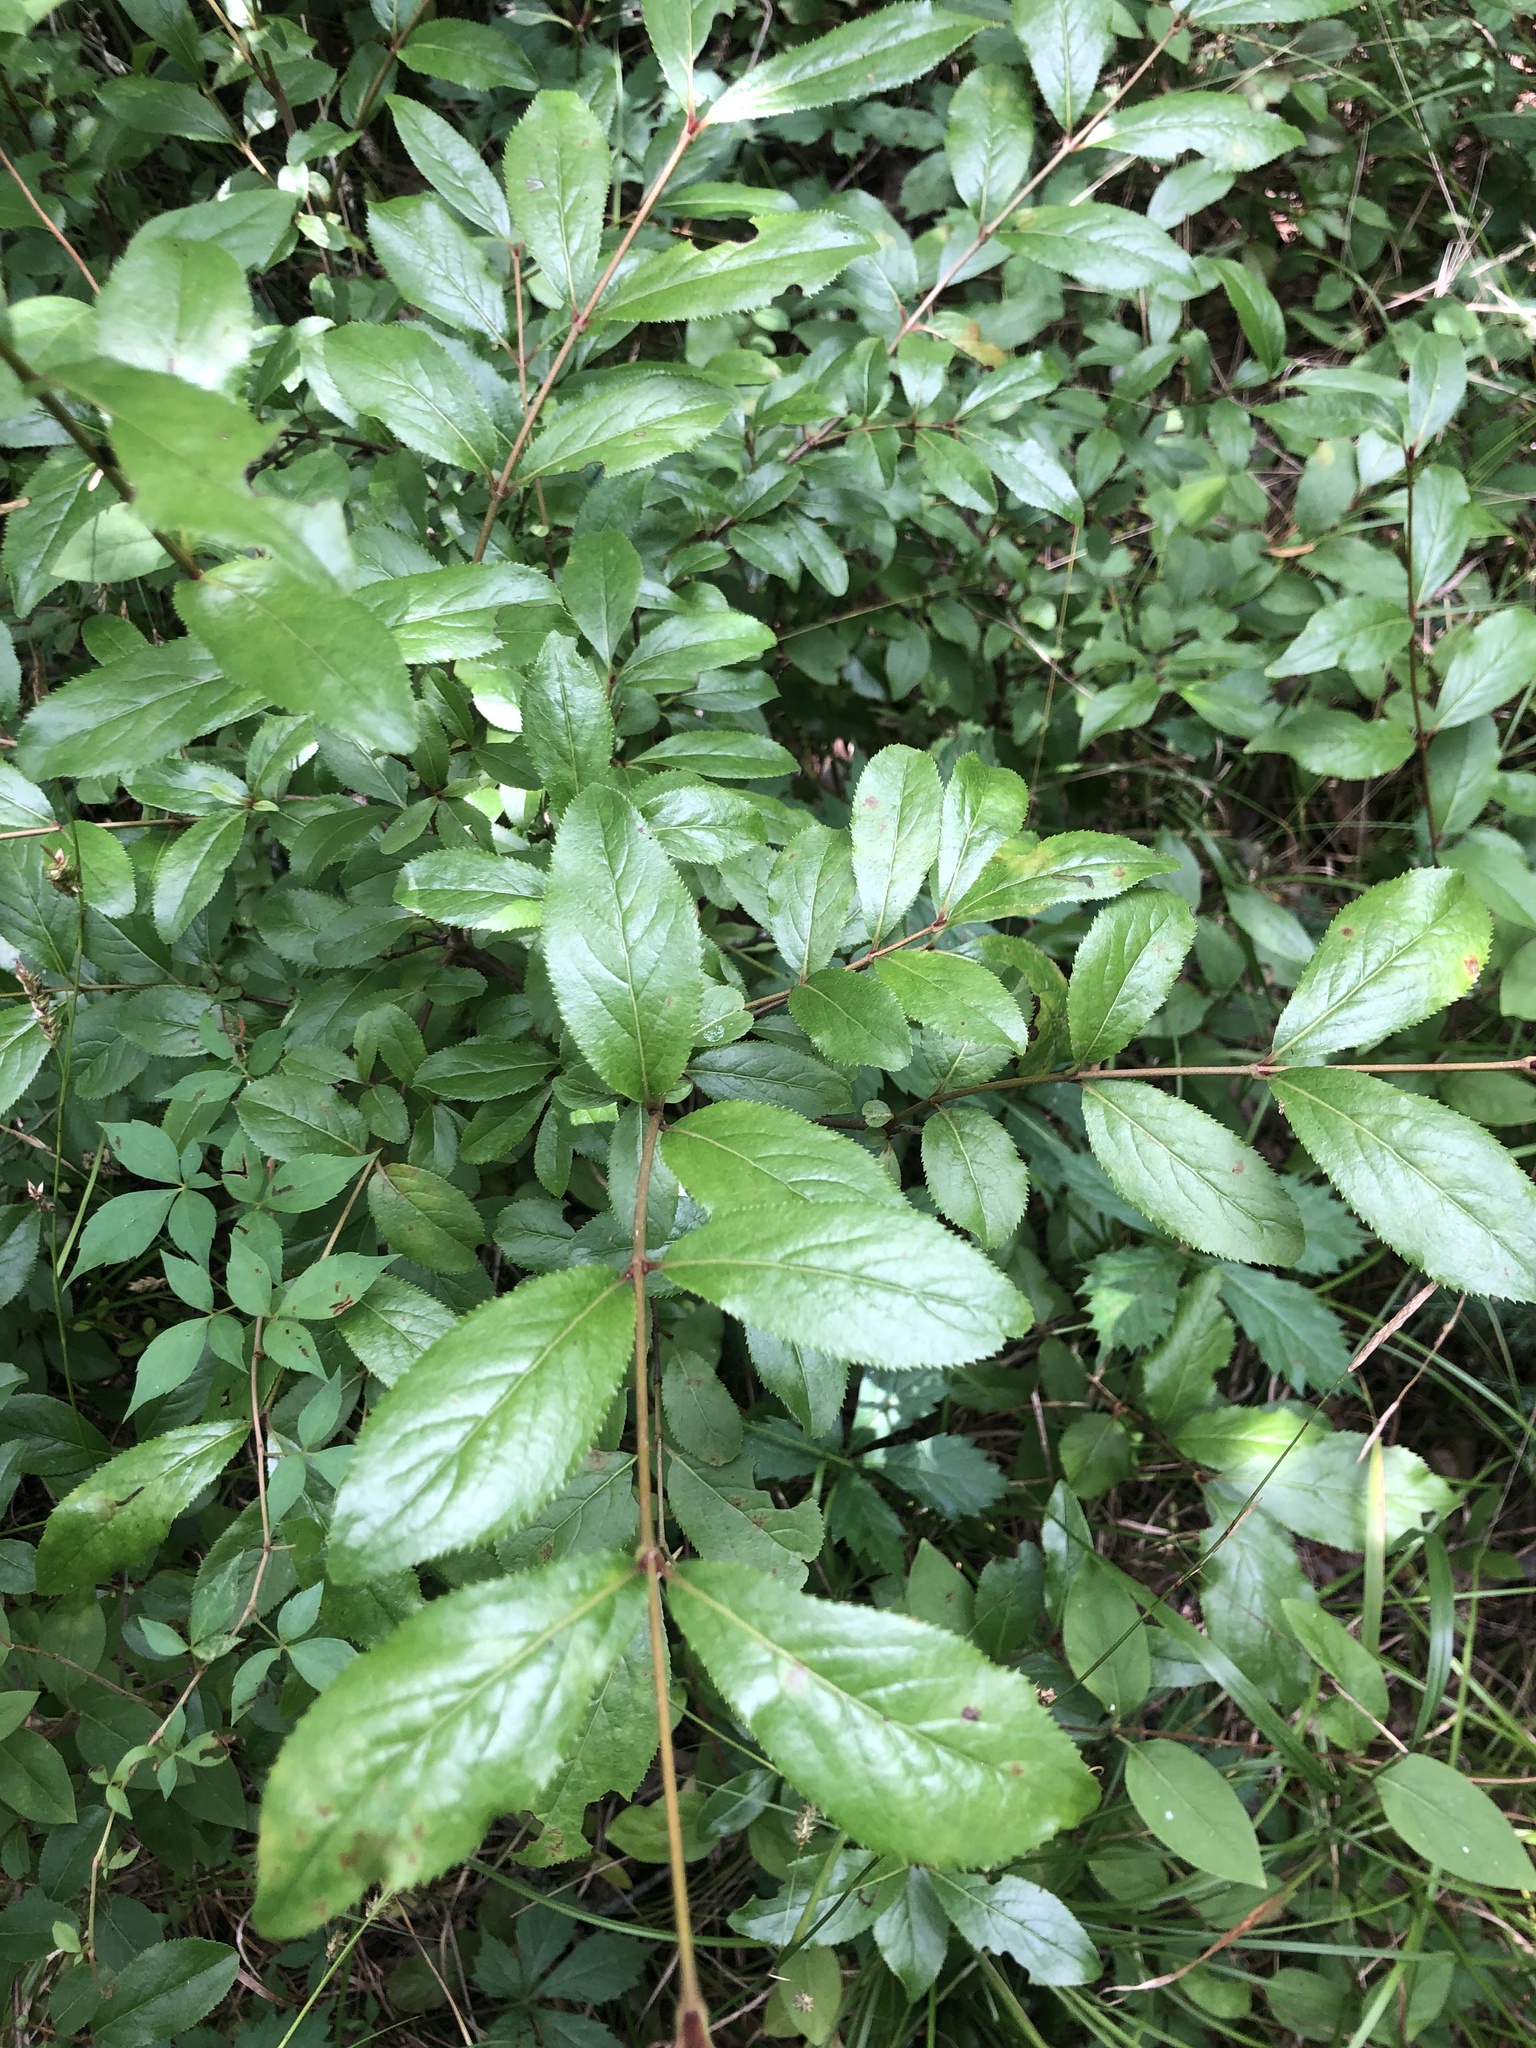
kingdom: Plantae
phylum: Tracheophyta
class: Magnoliopsida
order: Dipsacales
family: Viburnaceae
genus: Viburnum
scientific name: Viburnum rufidulum
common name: Blue haw
